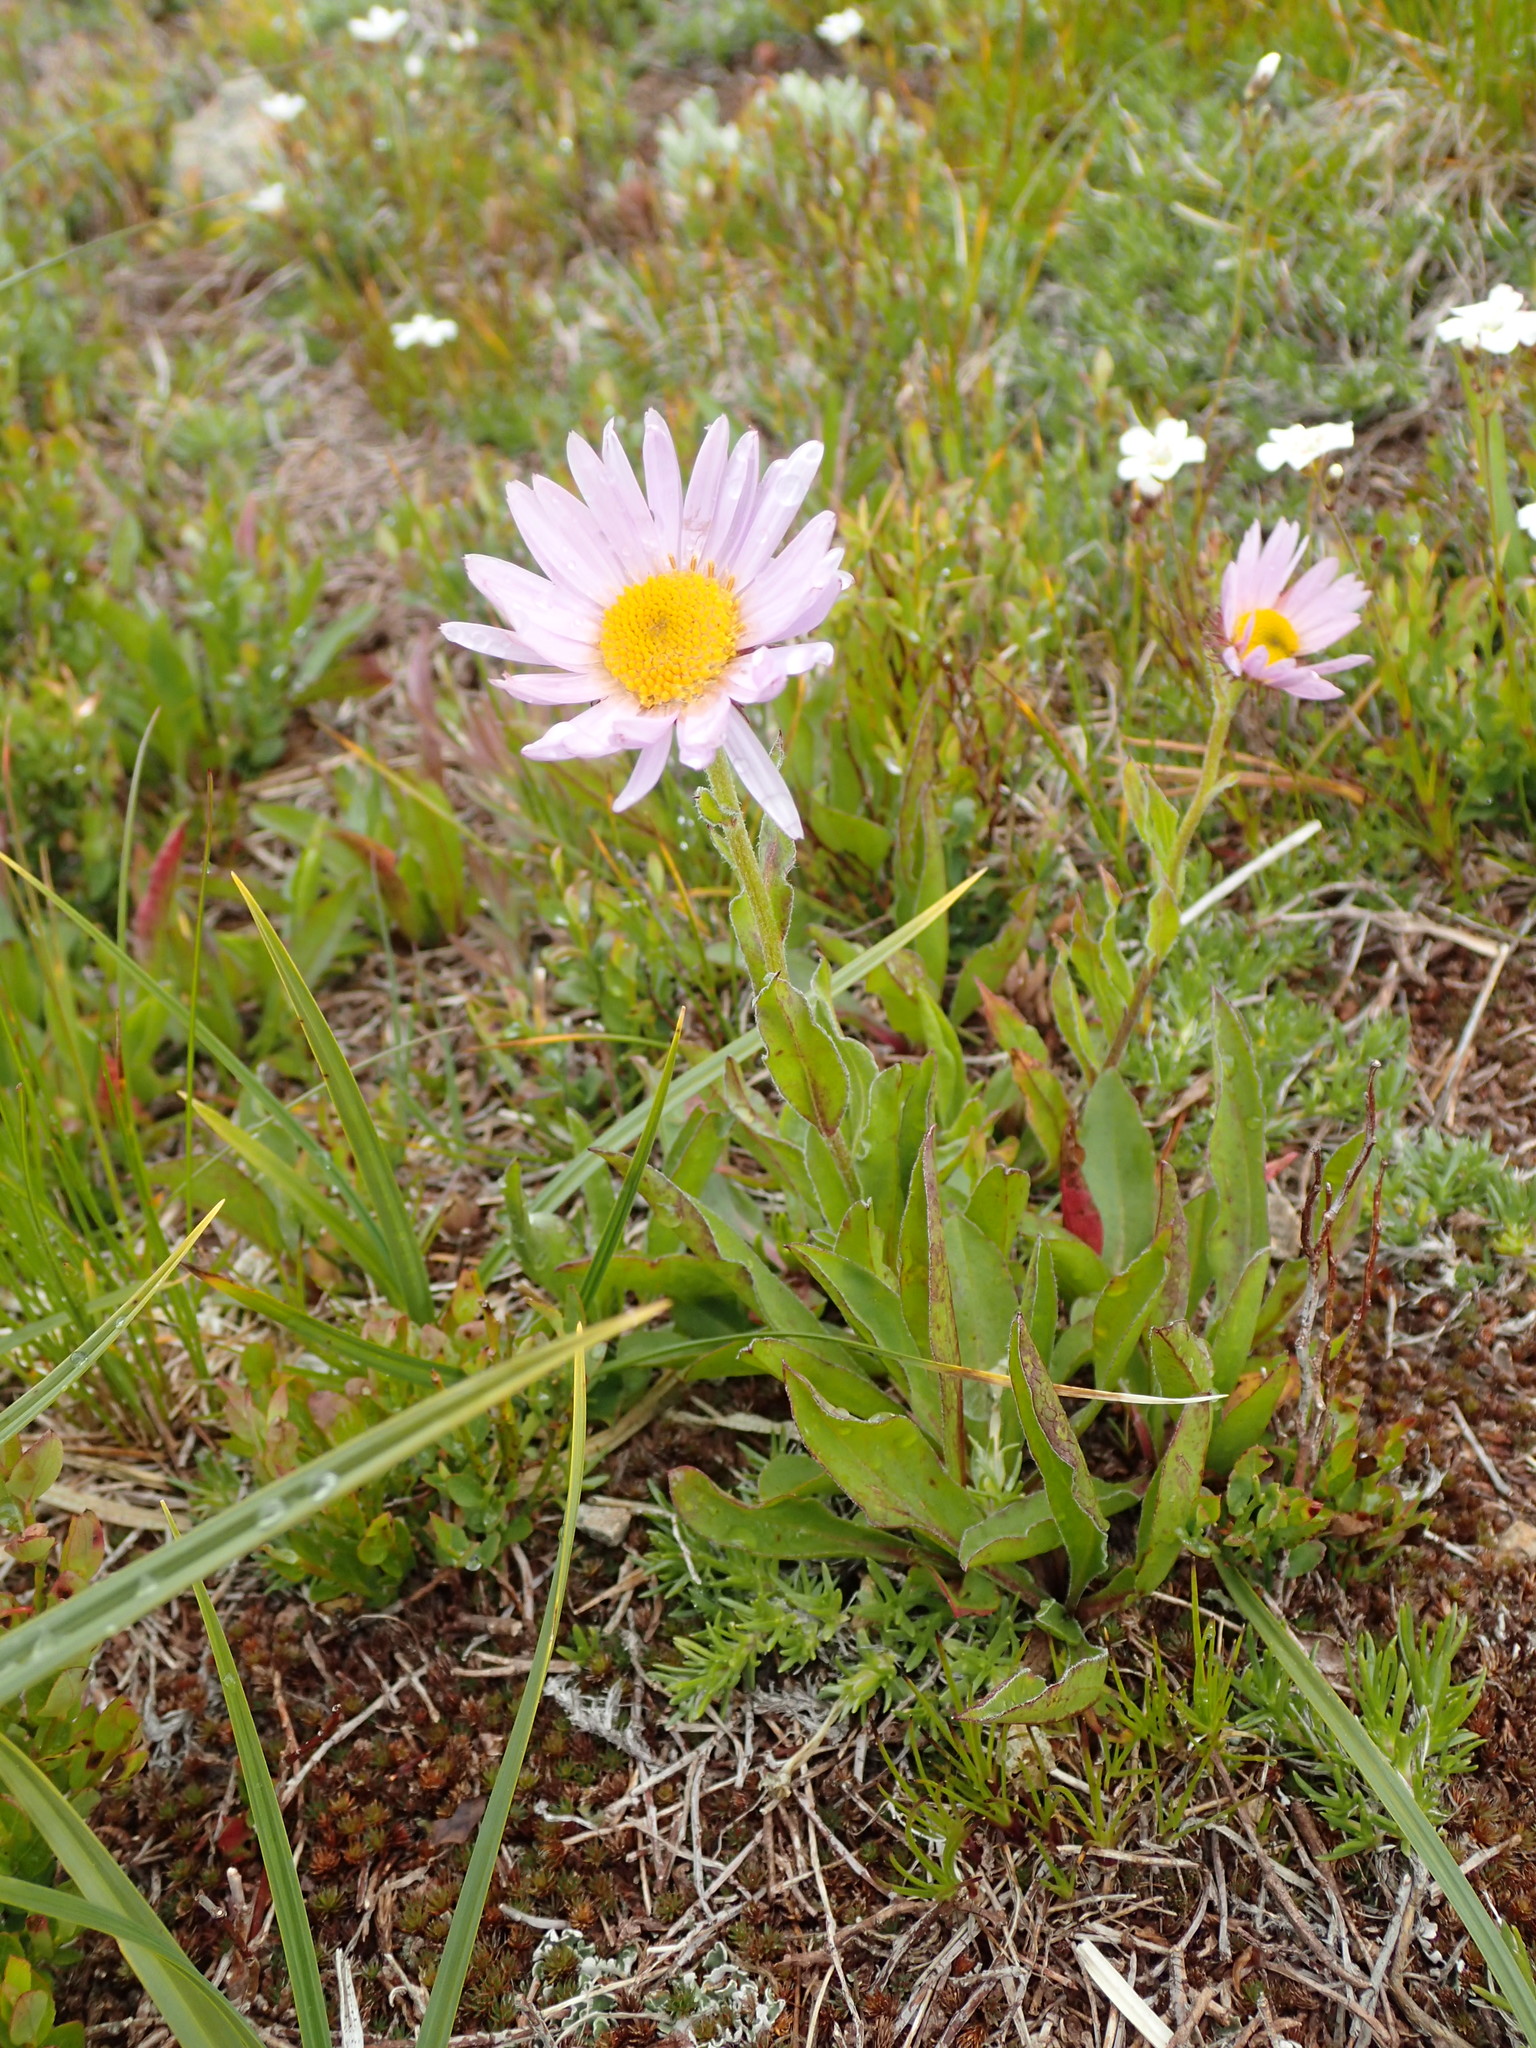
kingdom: Plantae
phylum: Tracheophyta
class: Magnoliopsida
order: Asterales
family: Asteraceae
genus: Erigeron
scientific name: Erigeron glacialis
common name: Subalpine fleabane
